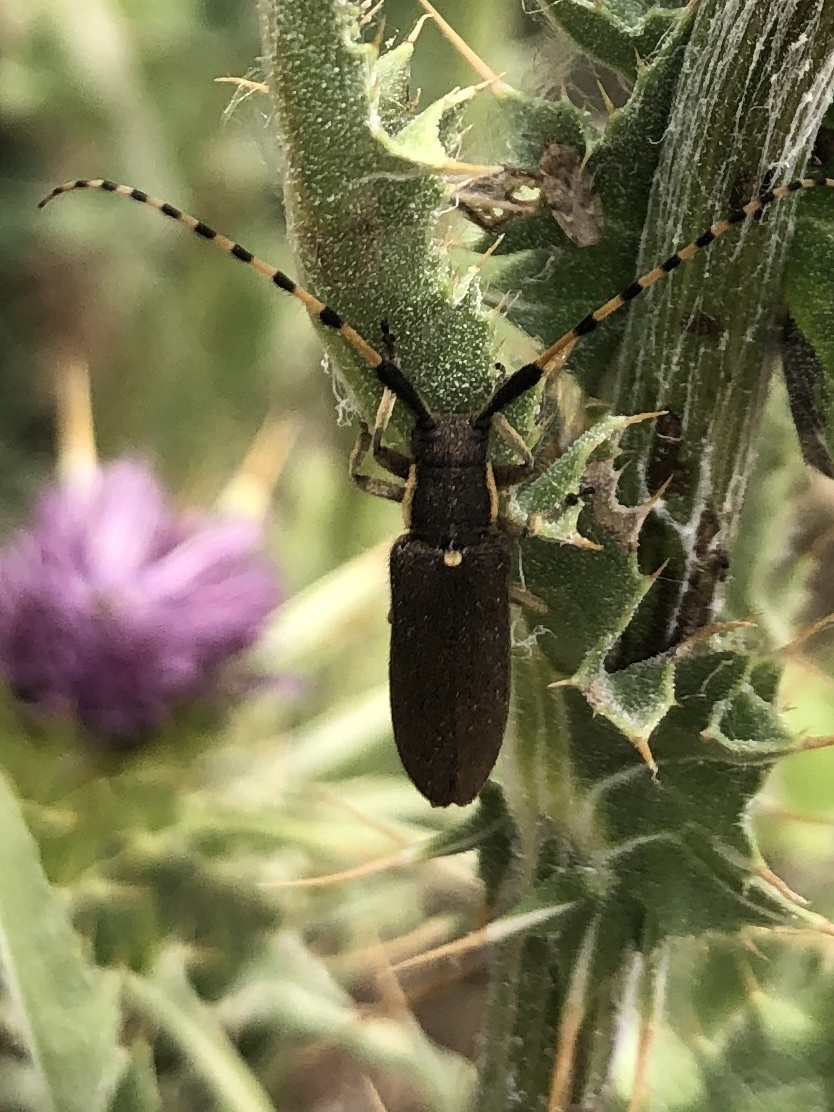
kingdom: Animalia
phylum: Arthropoda
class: Insecta
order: Coleoptera
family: Cerambycidae
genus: Agapanthia
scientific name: Agapanthia annularis
